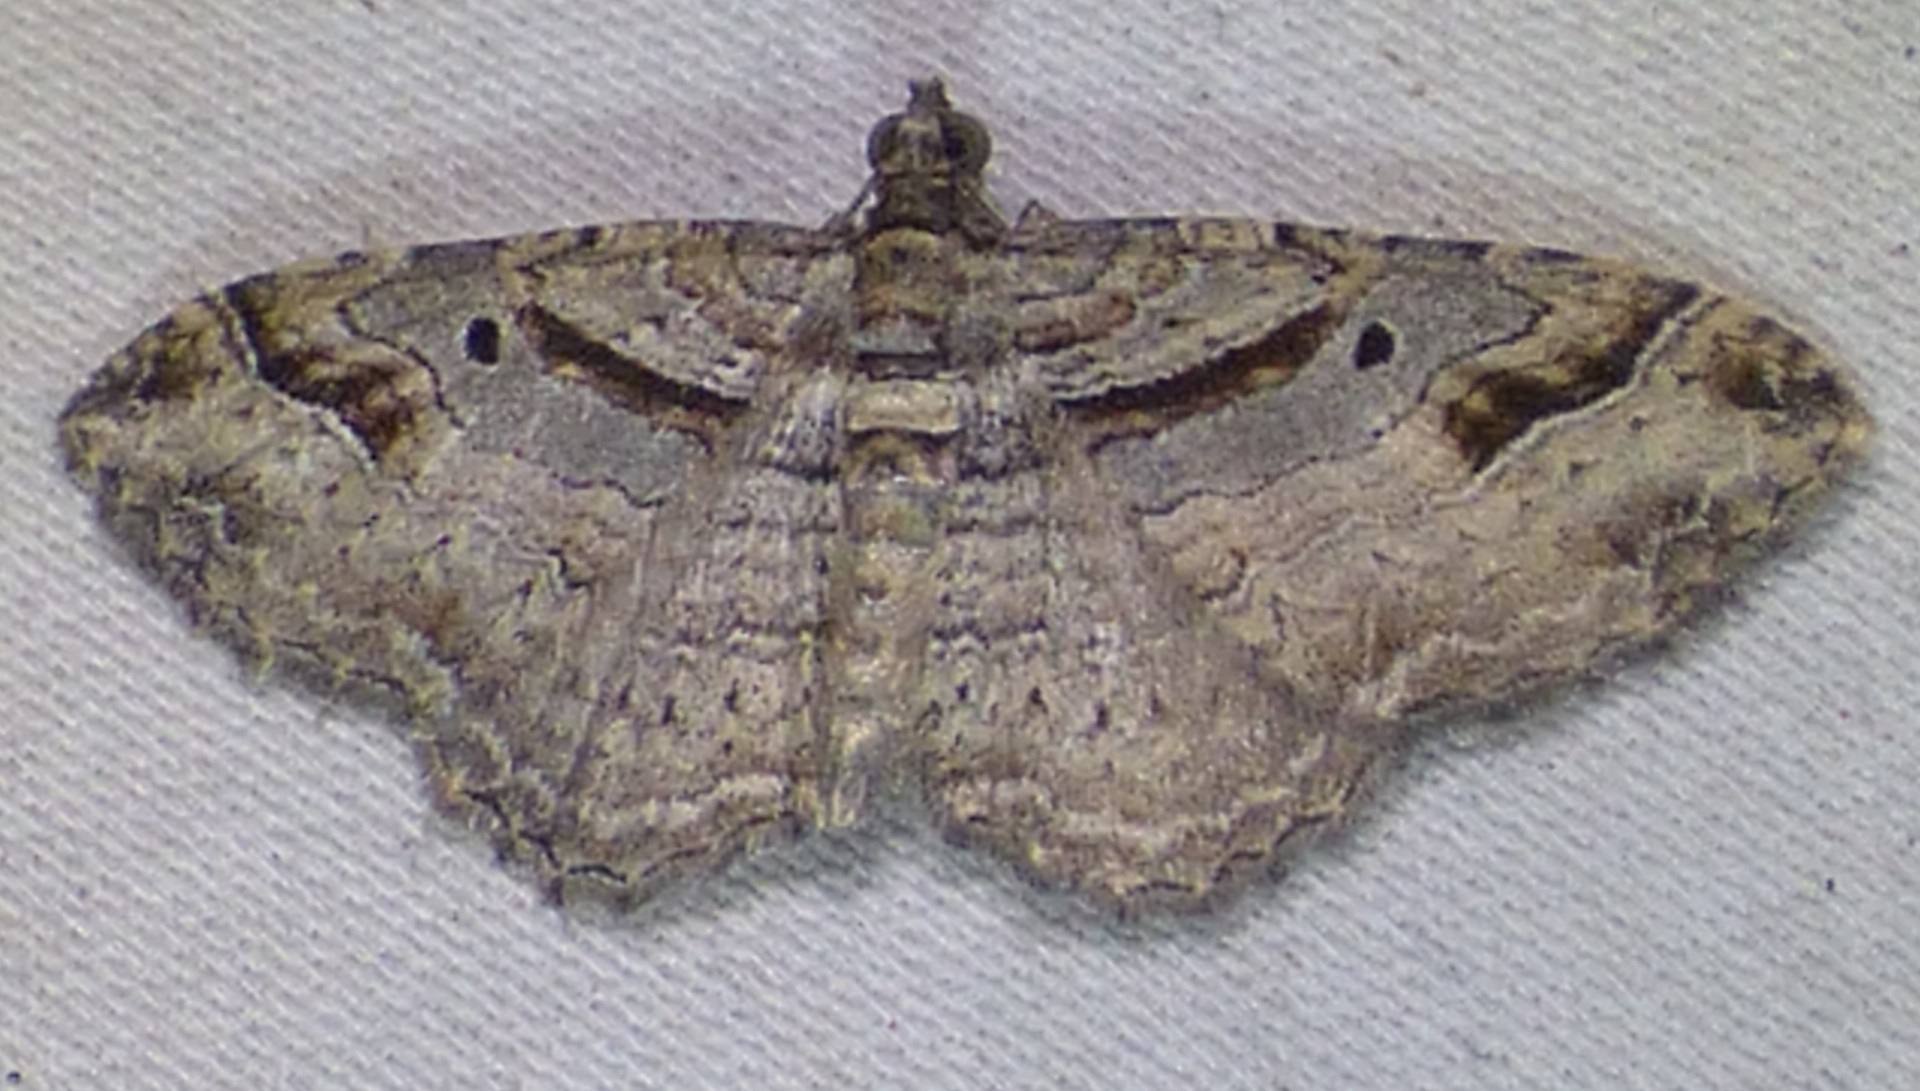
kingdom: Animalia
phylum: Arthropoda
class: Insecta
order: Lepidoptera
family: Geometridae
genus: Costaconvexa
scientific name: Costaconvexa centrostrigaria
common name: Bent-line carpet
